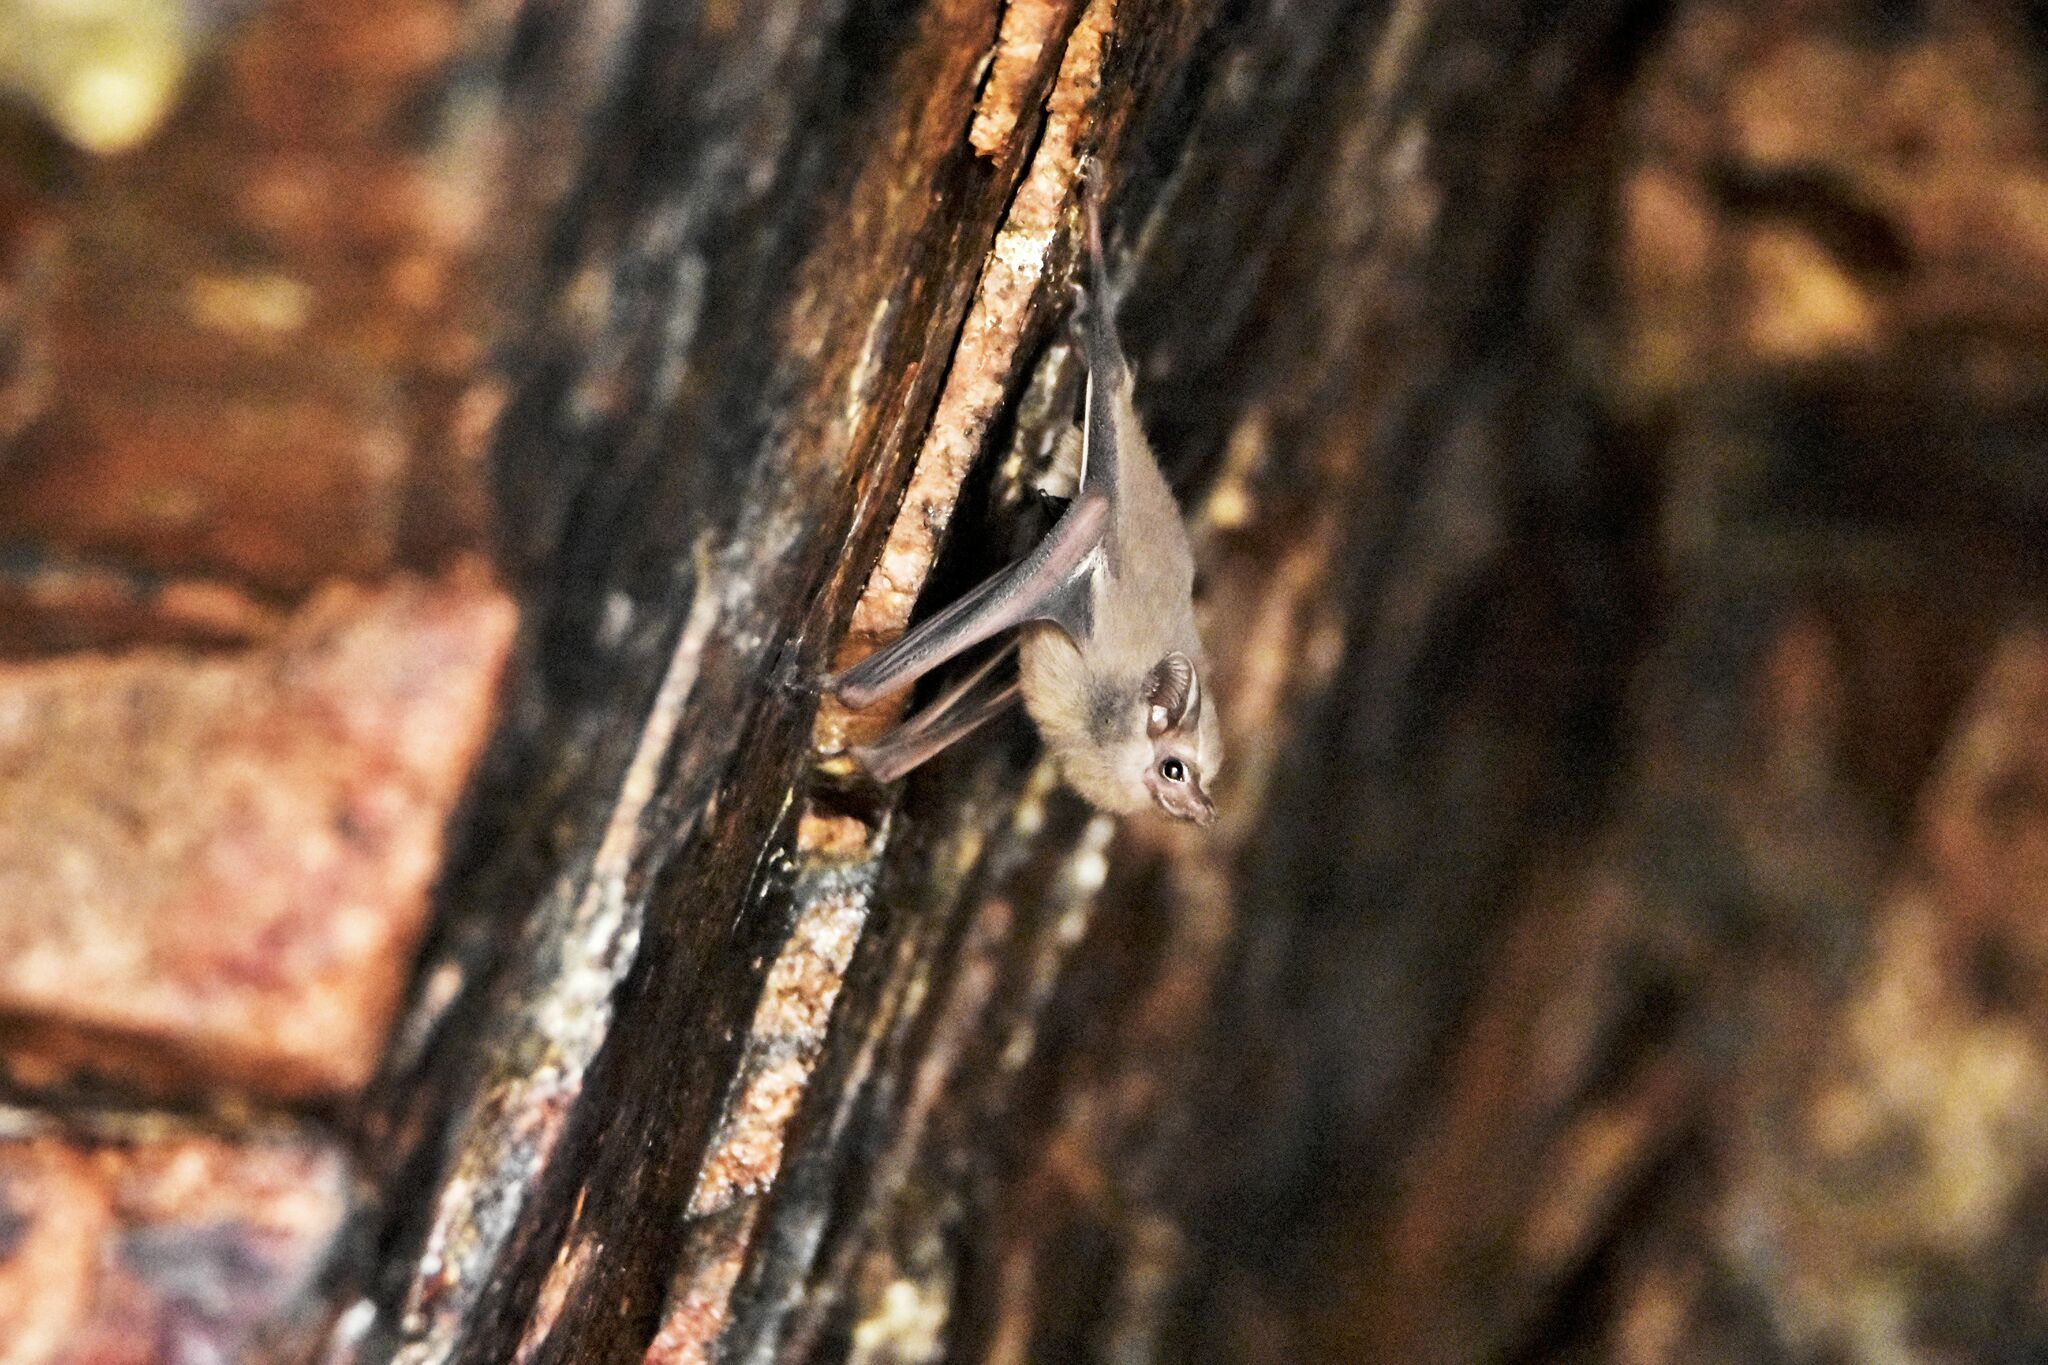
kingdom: Animalia
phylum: Chordata
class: Mammalia
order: Chiroptera
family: Emballonuridae
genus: Balantiopteryx
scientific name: Balantiopteryx plicata
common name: Gray sac-winged bat
